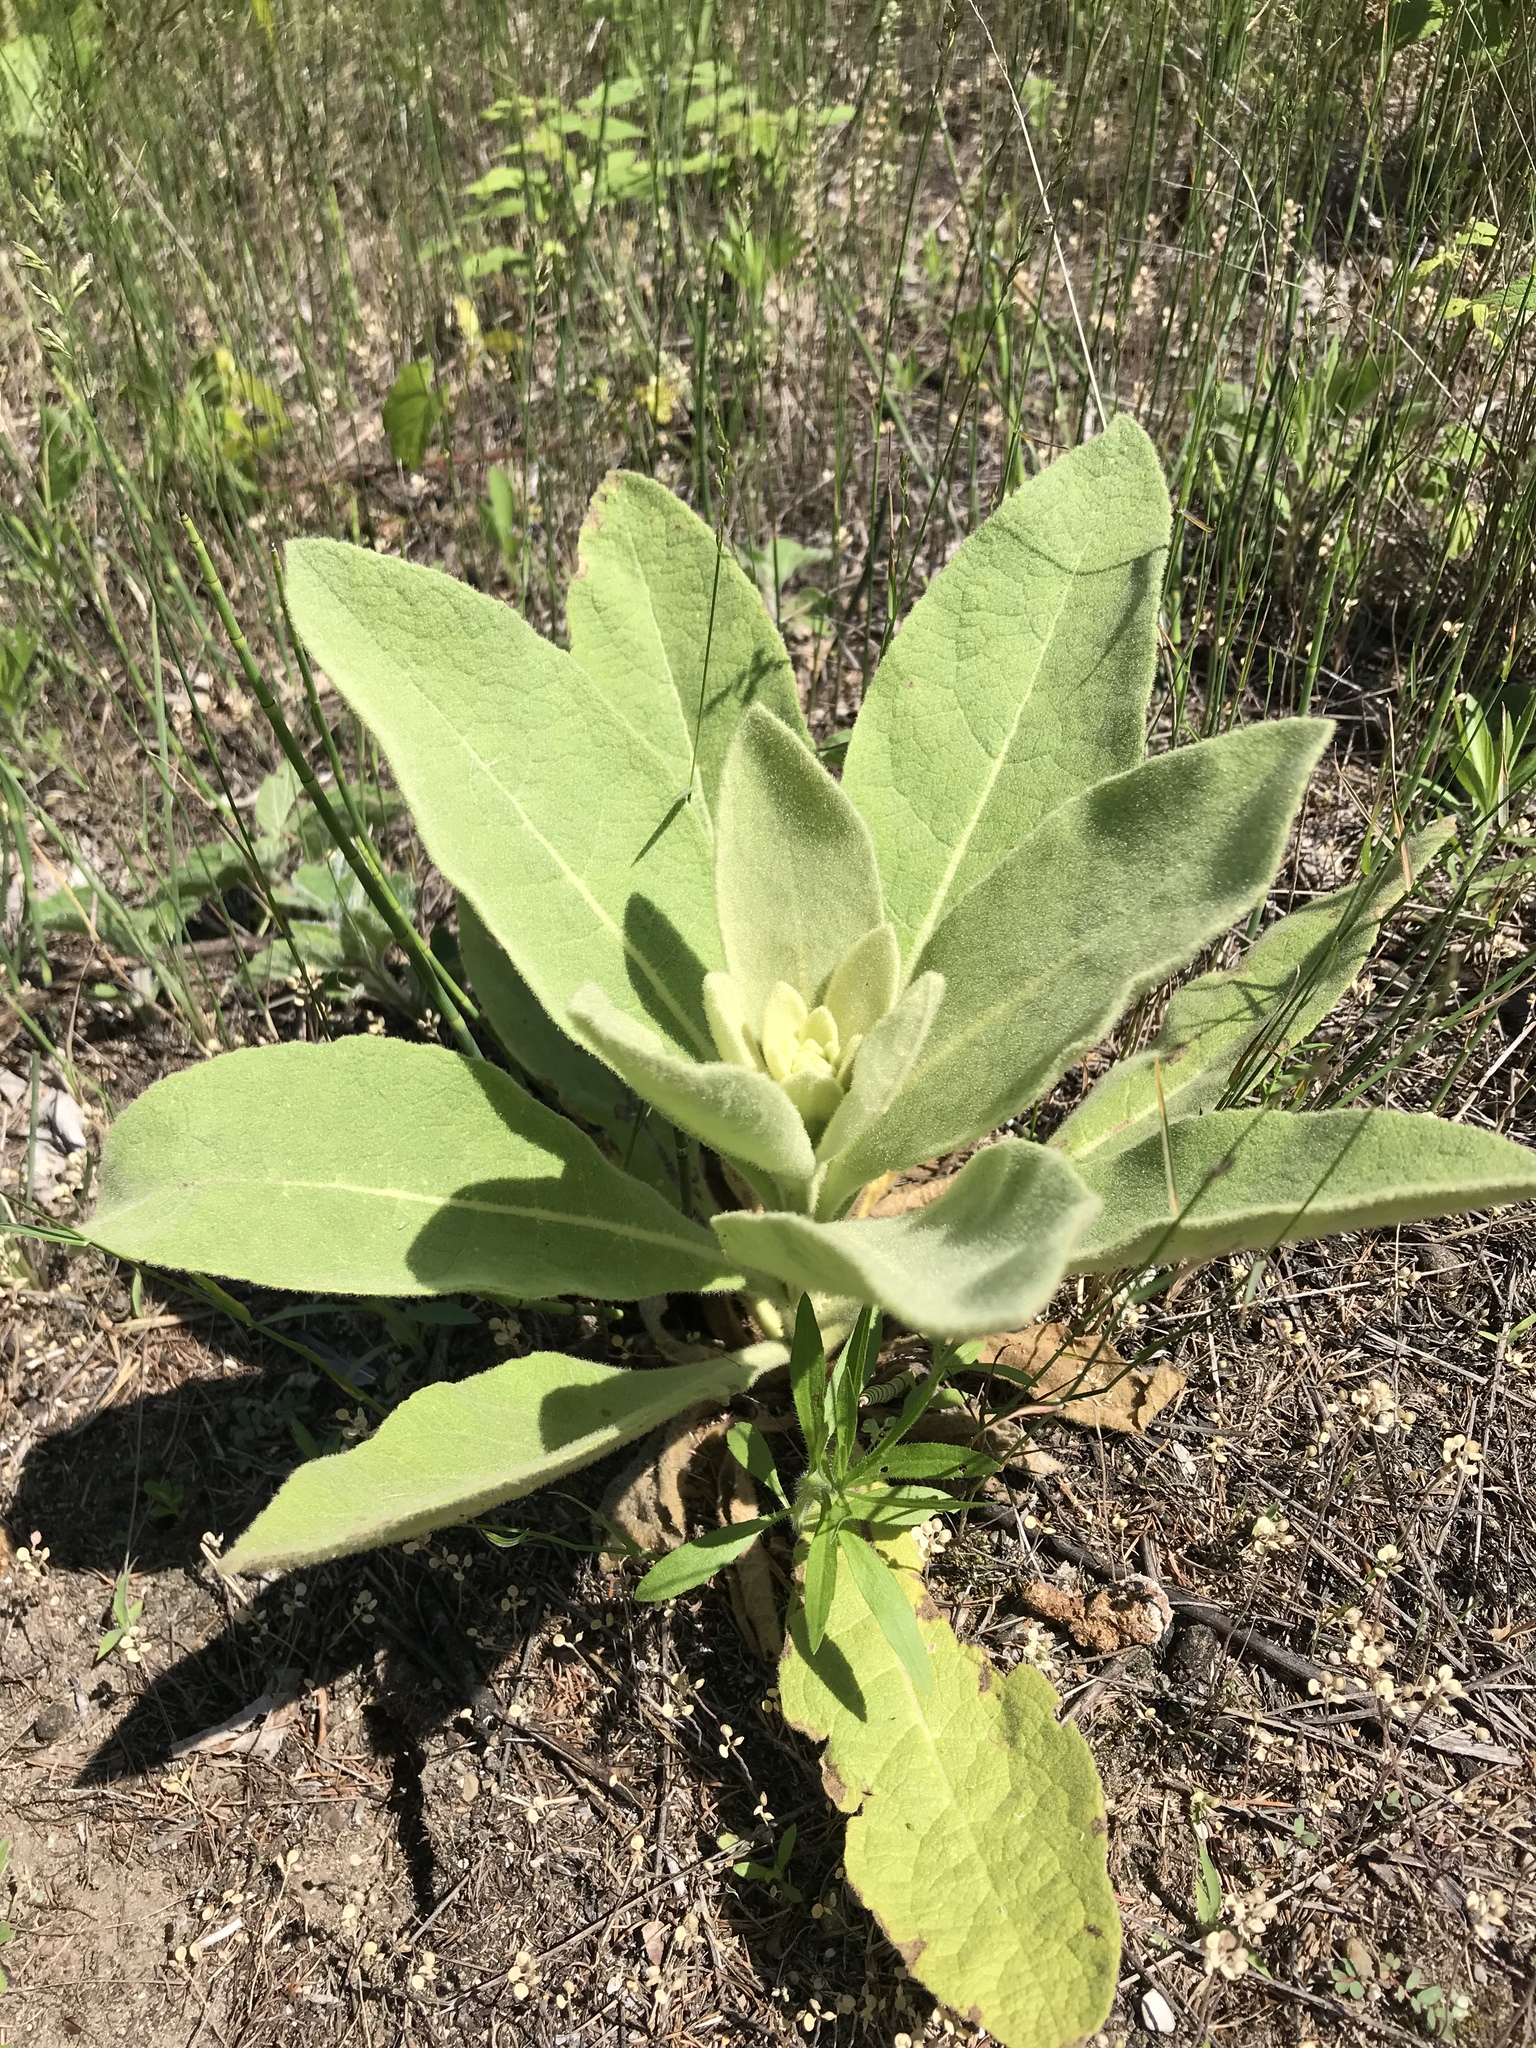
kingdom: Plantae
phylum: Tracheophyta
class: Magnoliopsida
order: Lamiales
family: Scrophulariaceae
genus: Verbascum
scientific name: Verbascum thapsus
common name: Common mullein
